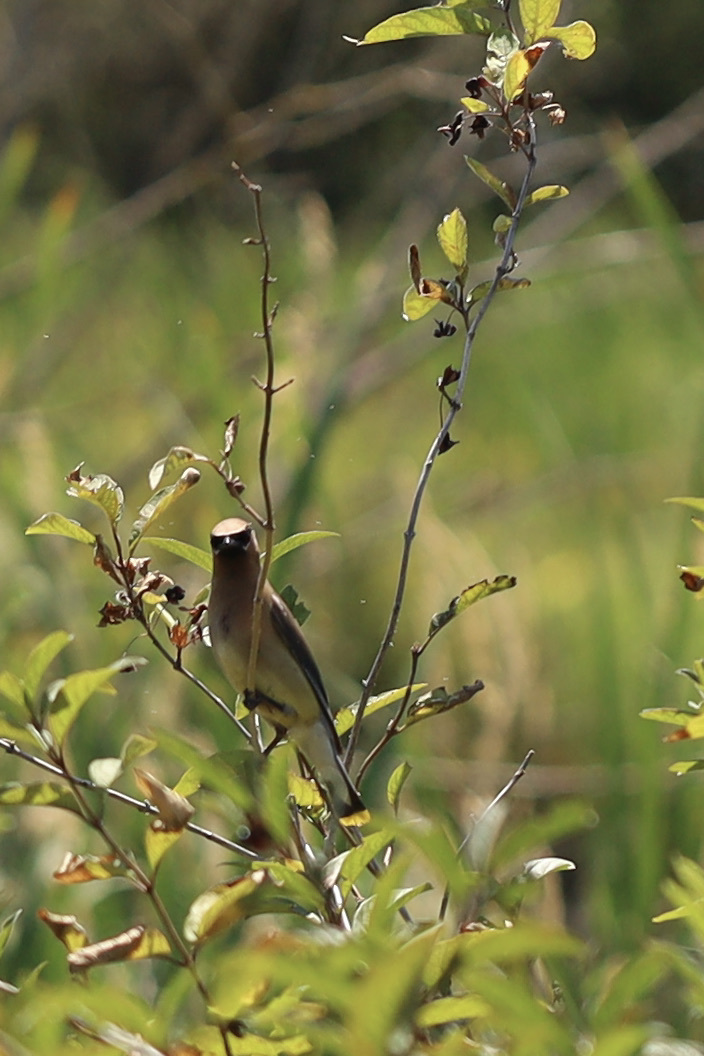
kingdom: Animalia
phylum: Chordata
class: Aves
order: Passeriformes
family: Bombycillidae
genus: Bombycilla
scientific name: Bombycilla cedrorum
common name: Cedar waxwing
